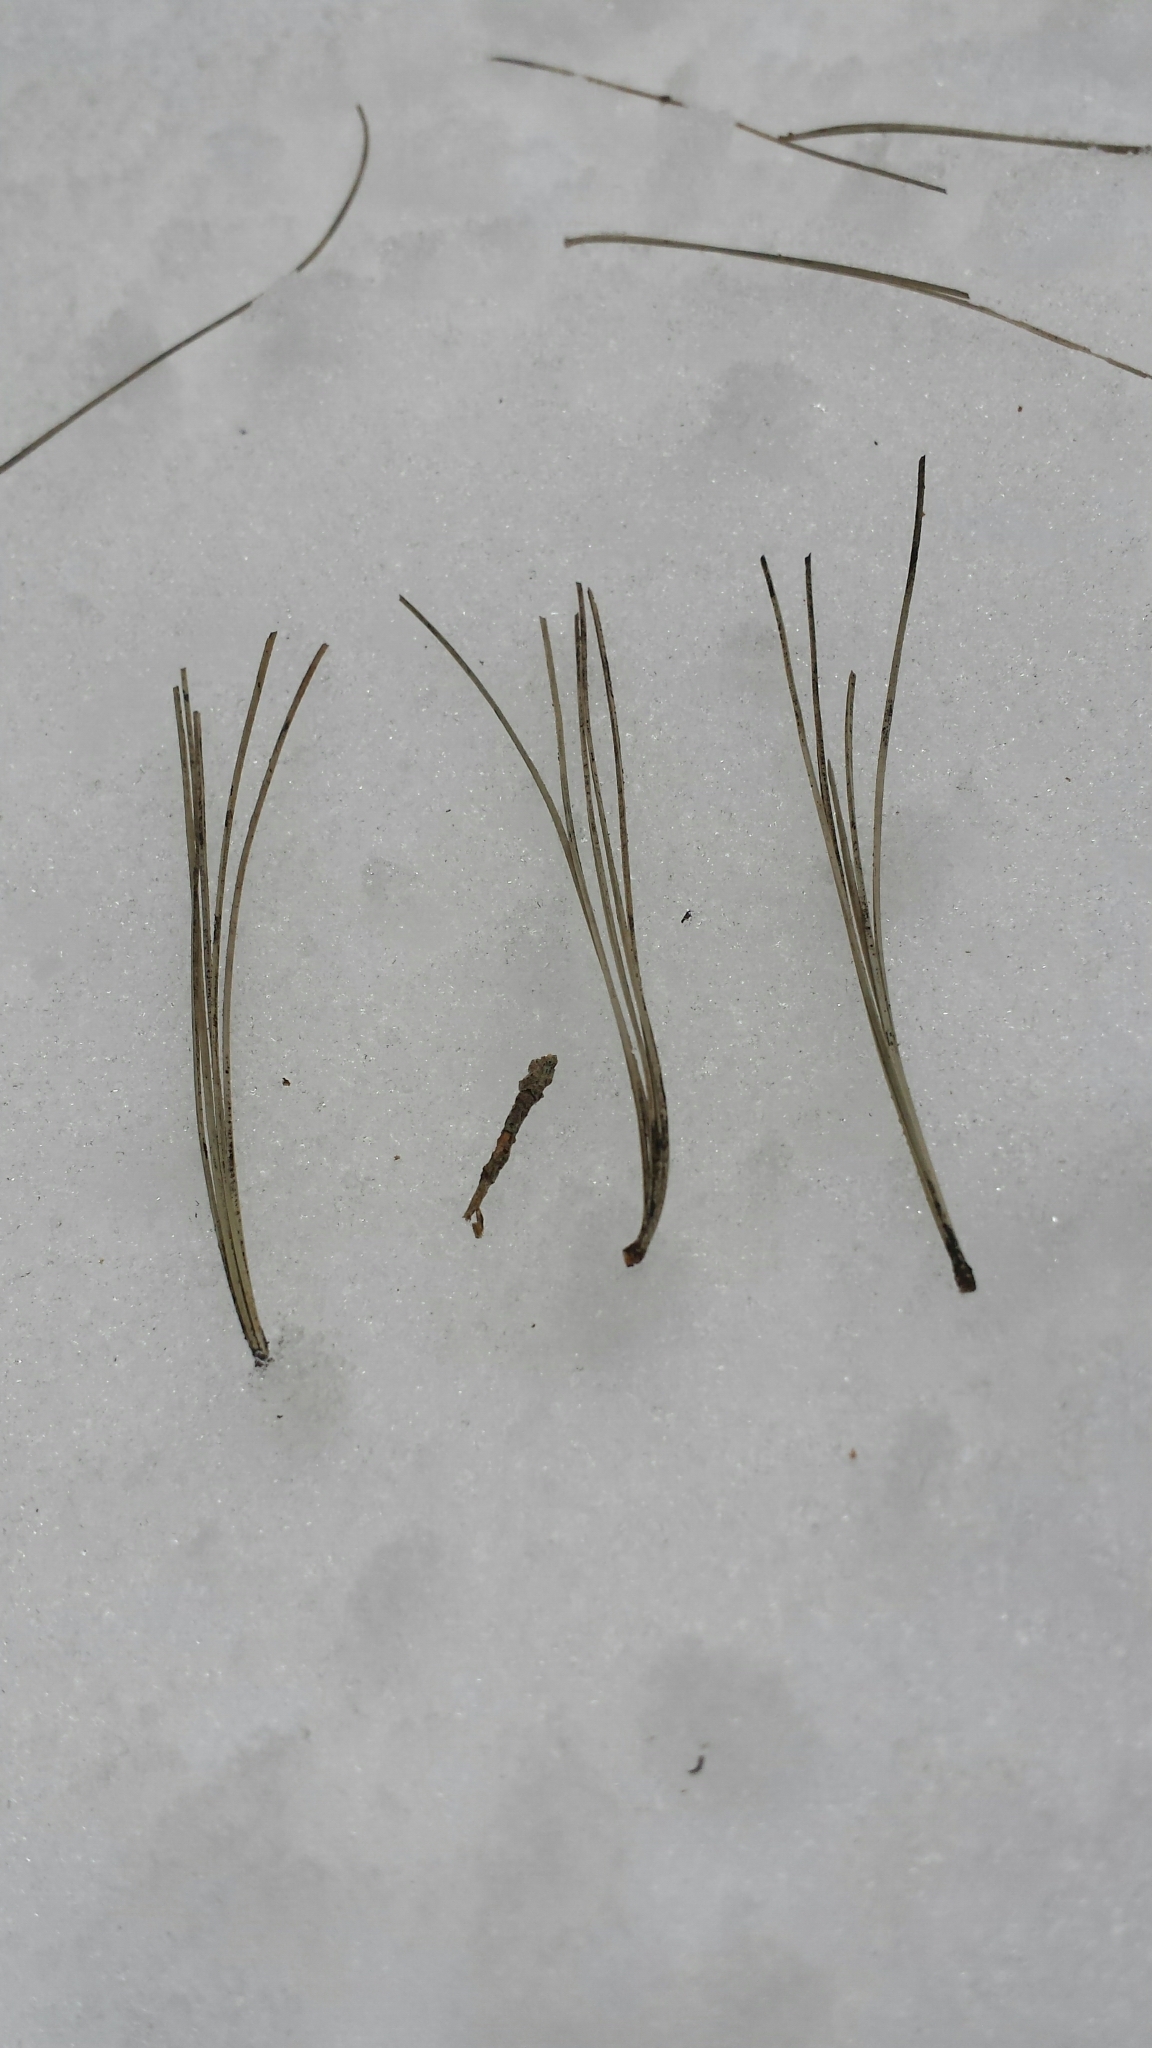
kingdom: Plantae
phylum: Tracheophyta
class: Pinopsida
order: Pinales
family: Pinaceae
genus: Pinus
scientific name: Pinus strobus
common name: Weymouth pine
